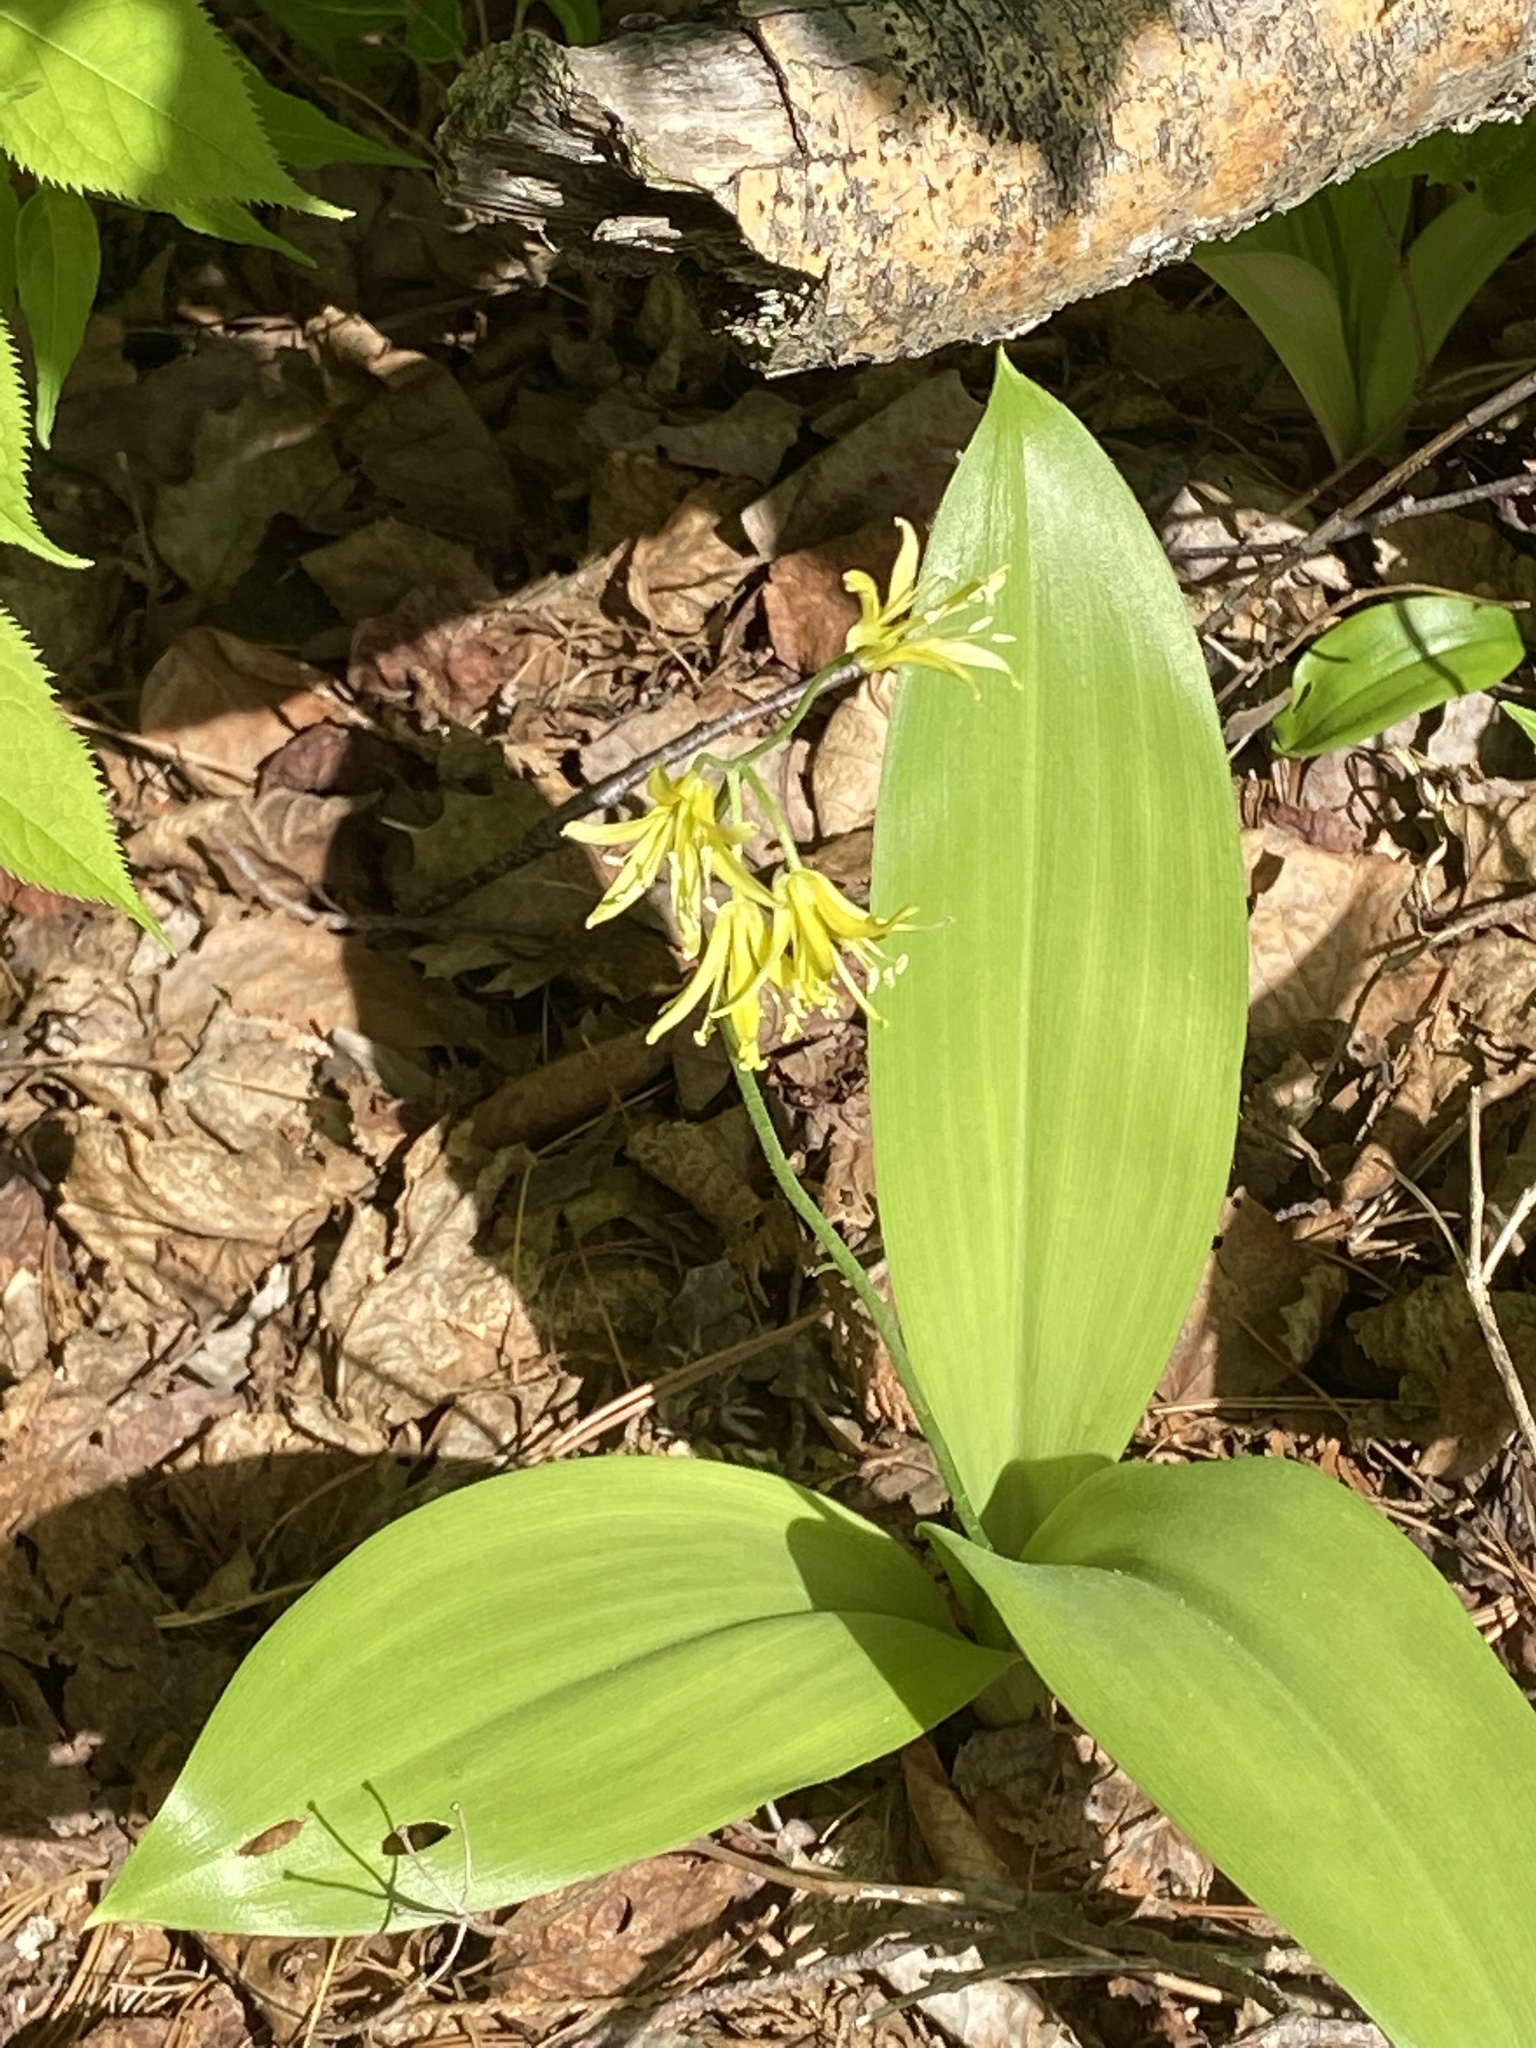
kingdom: Plantae
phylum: Tracheophyta
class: Liliopsida
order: Liliales
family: Liliaceae
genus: Clintonia
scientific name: Clintonia borealis
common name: Yellow clintonia
